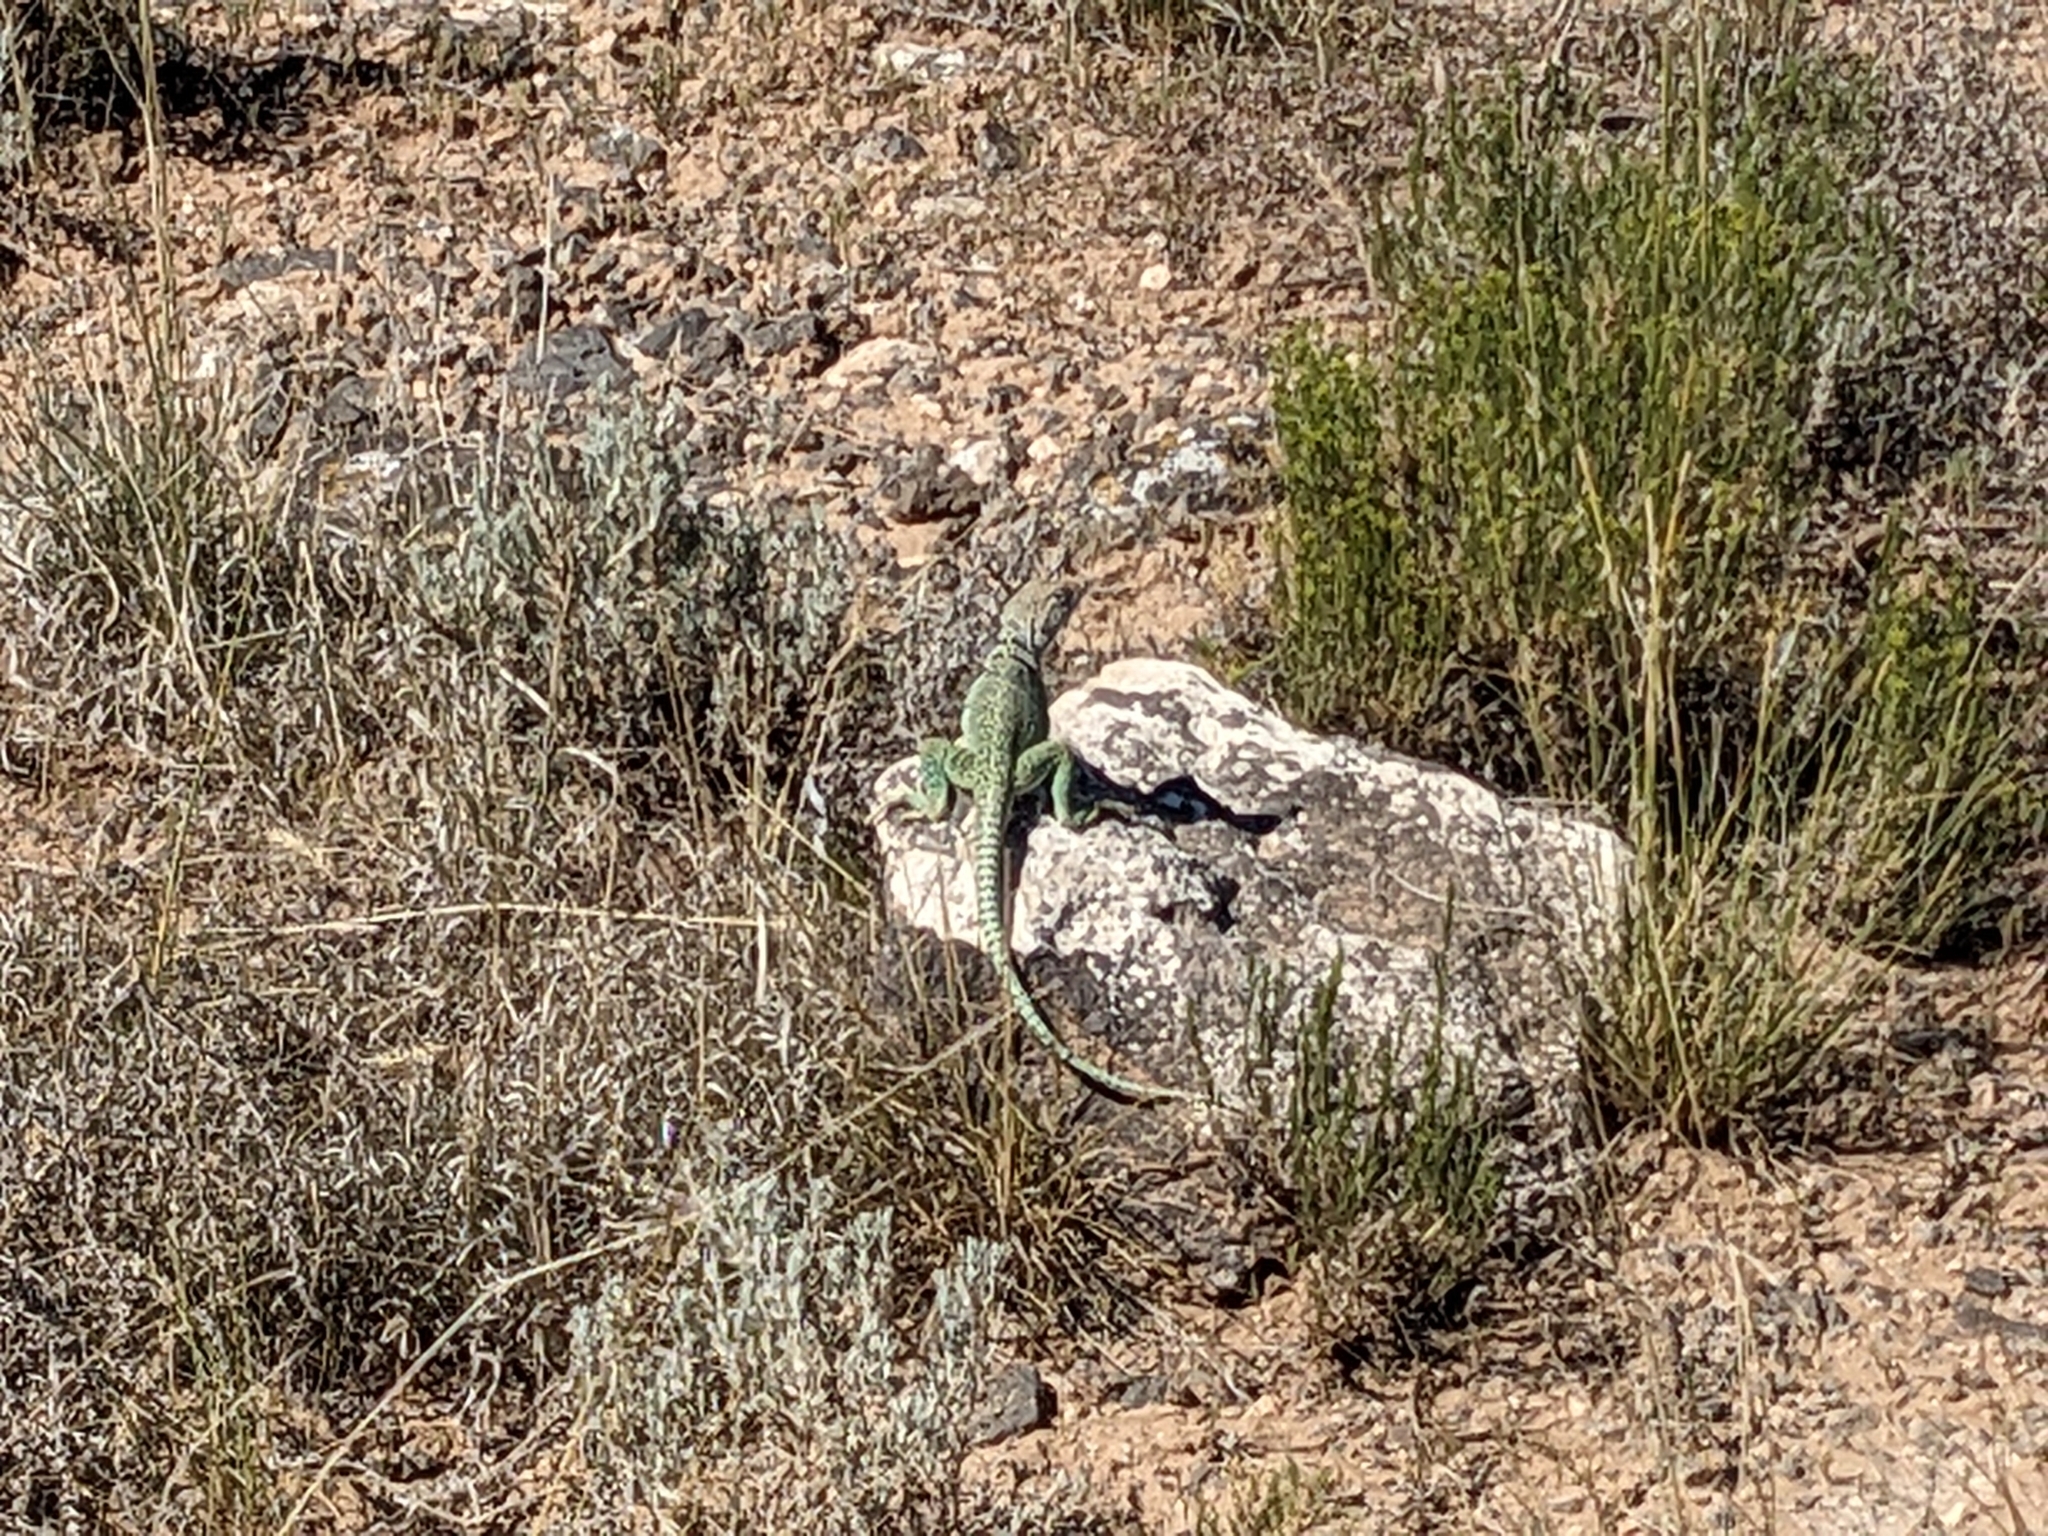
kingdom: Animalia
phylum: Chordata
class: Squamata
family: Crotaphytidae
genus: Crotaphytus
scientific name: Crotaphytus collaris
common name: Collared lizard
